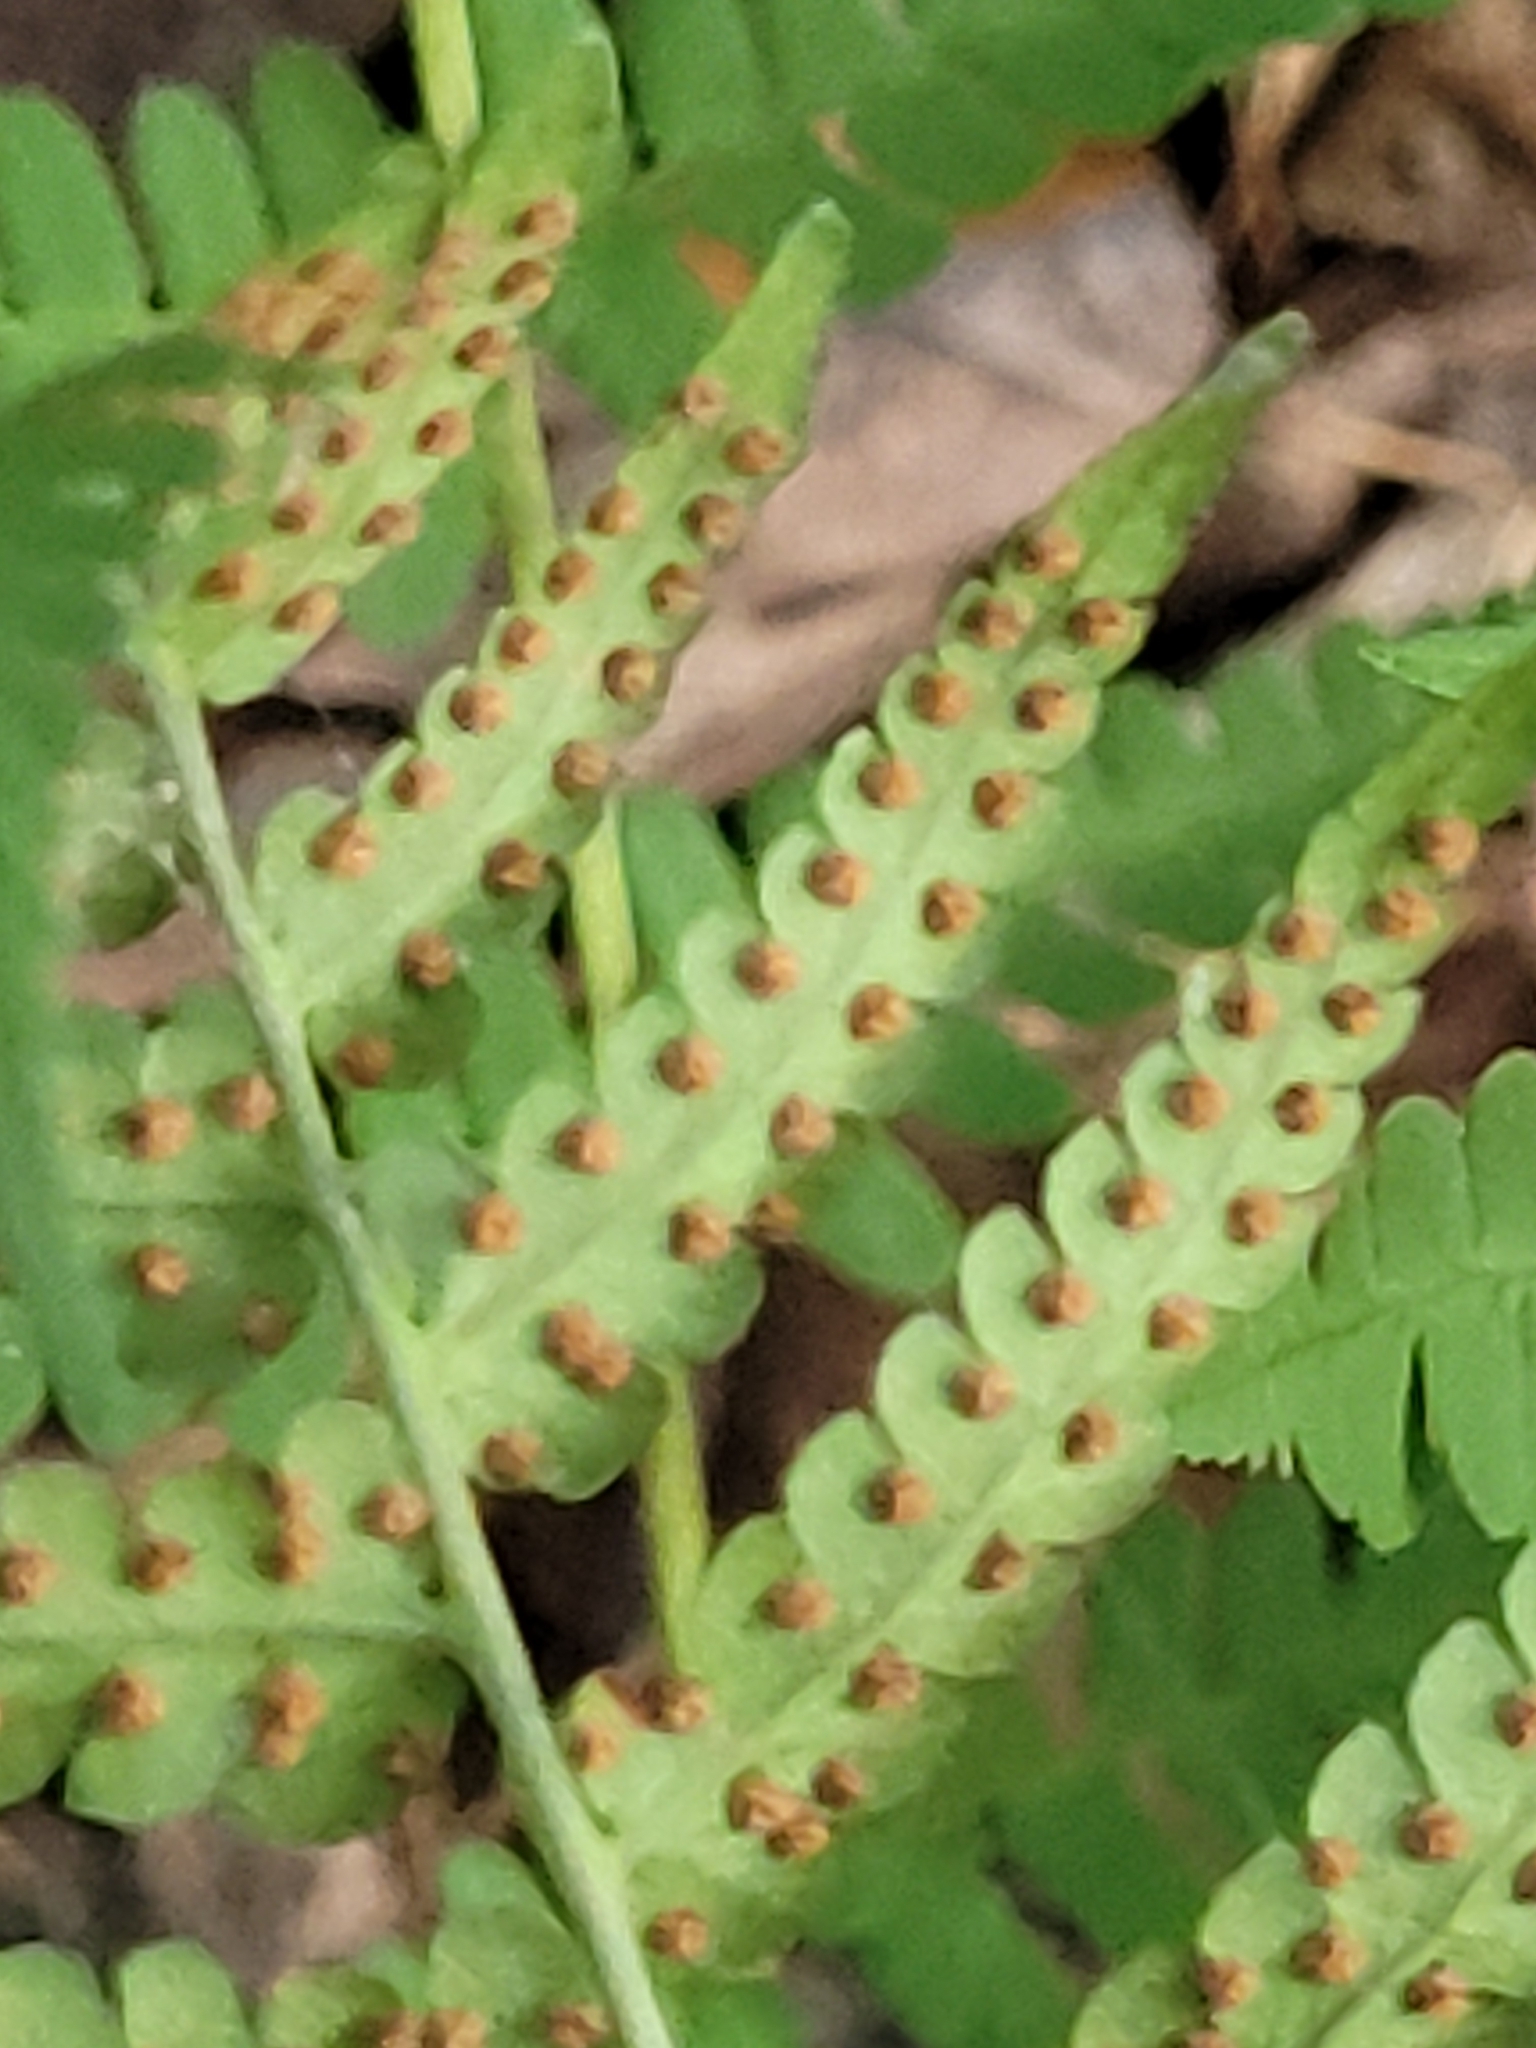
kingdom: Plantae
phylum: Tracheophyta
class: Polypodiopsida
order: Polypodiales
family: Dryopteridaceae
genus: Dryopteris
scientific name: Dryopteris marginalis
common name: Marginal wood fern
